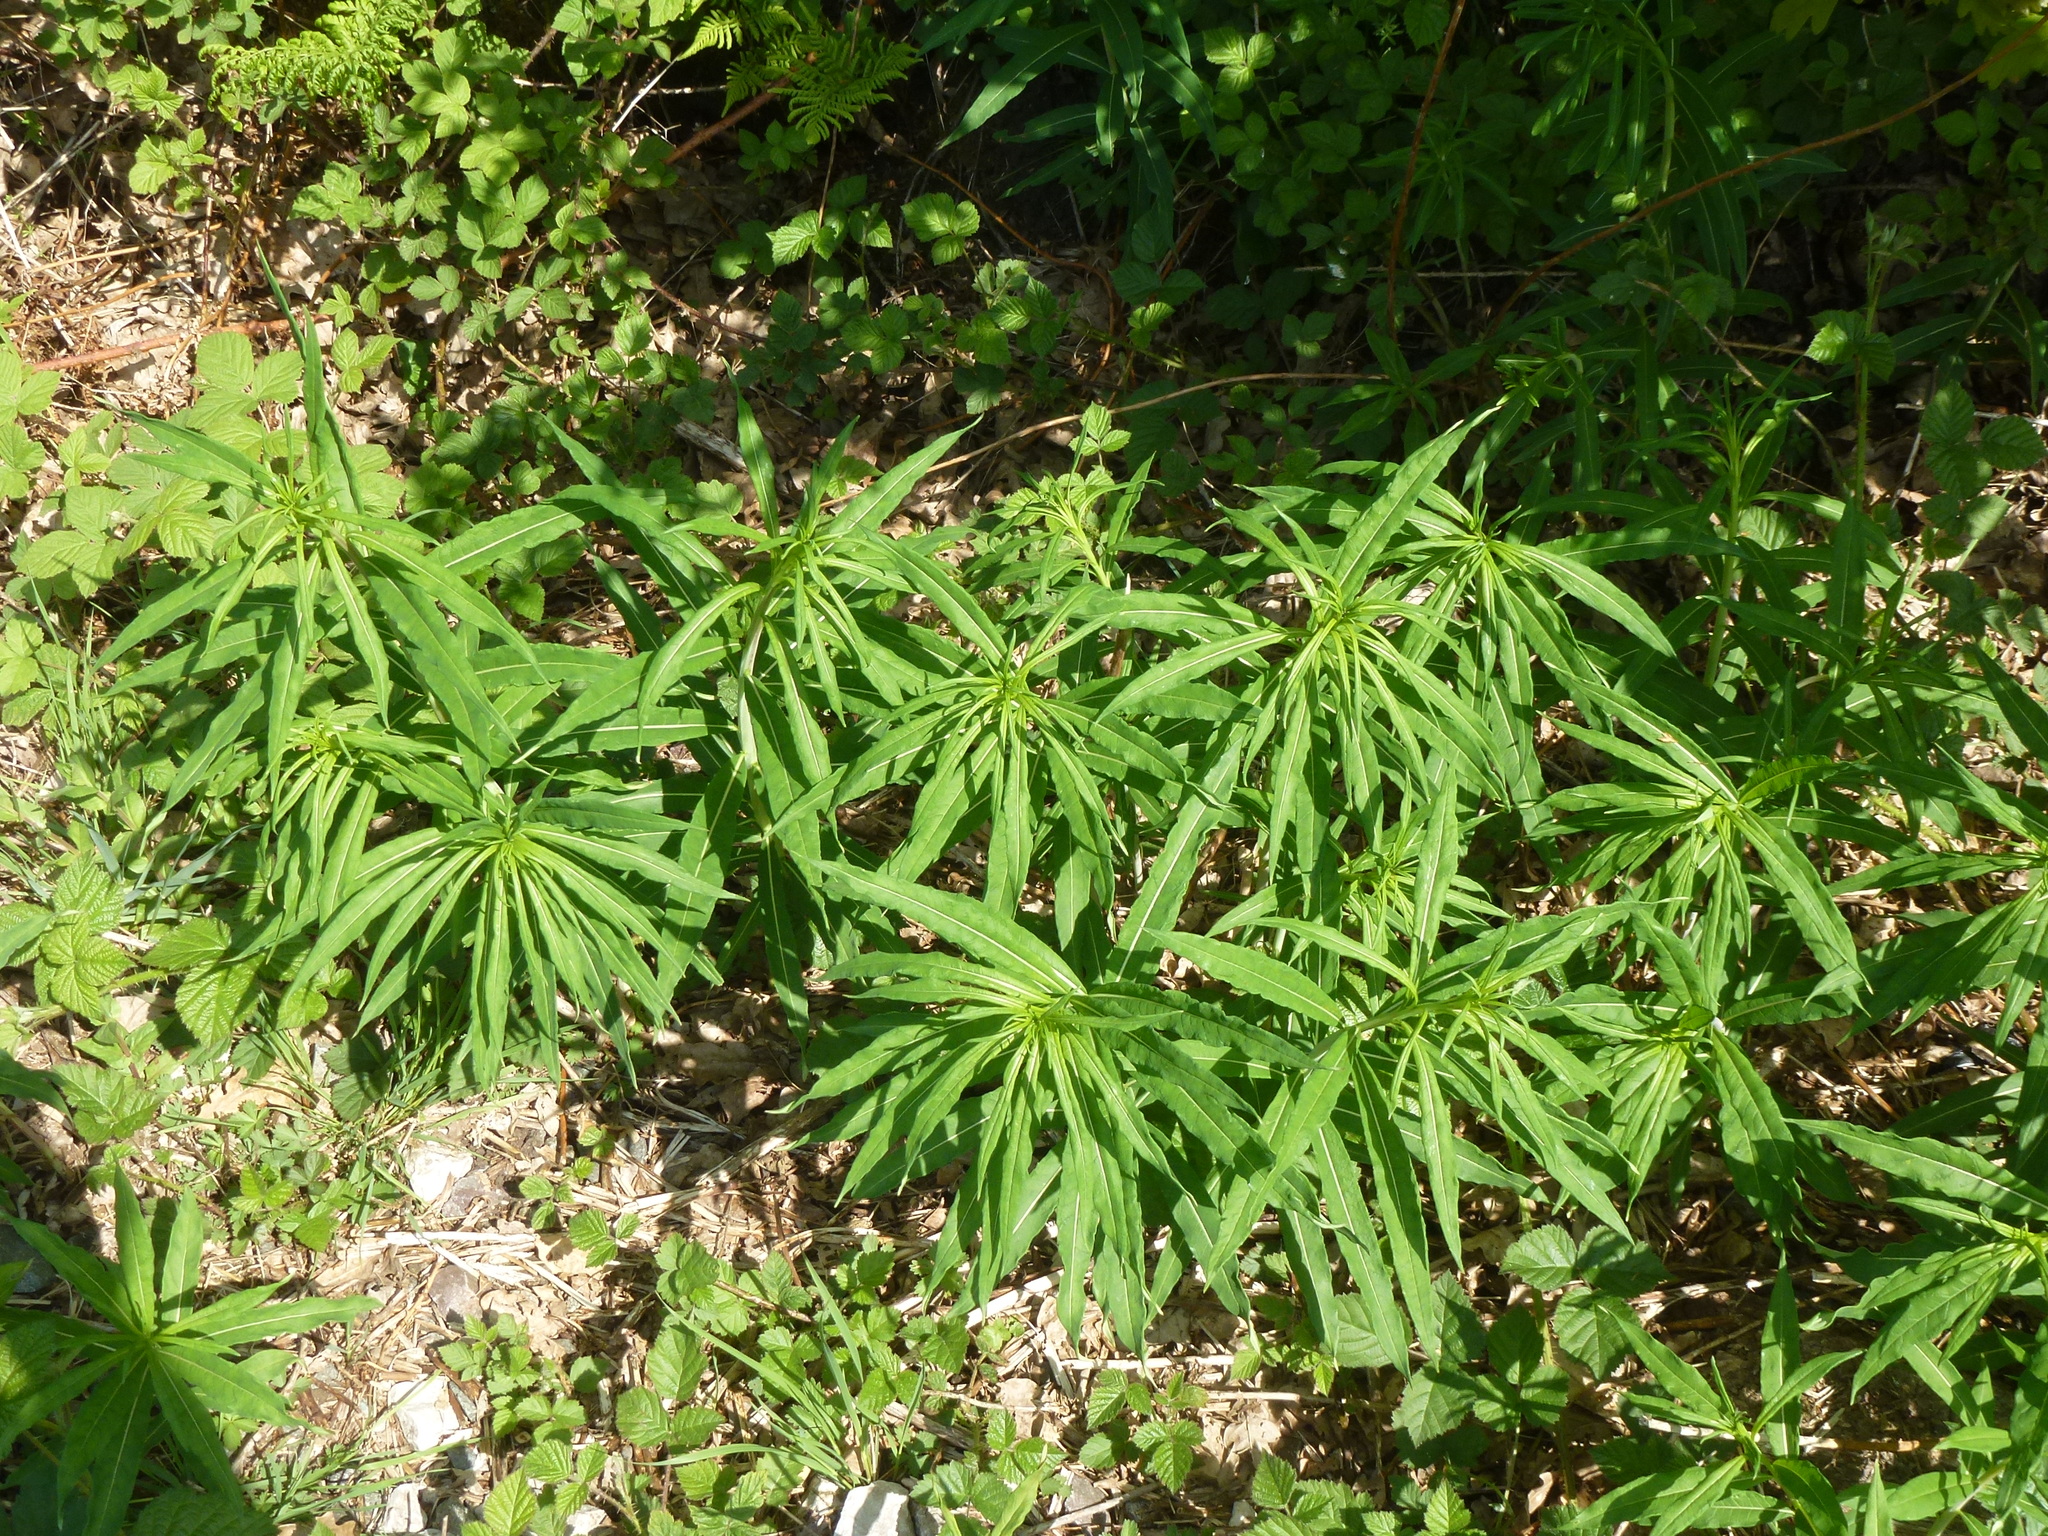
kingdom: Plantae
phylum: Tracheophyta
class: Magnoliopsida
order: Myrtales
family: Onagraceae
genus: Chamaenerion
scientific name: Chamaenerion angustifolium
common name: Fireweed
